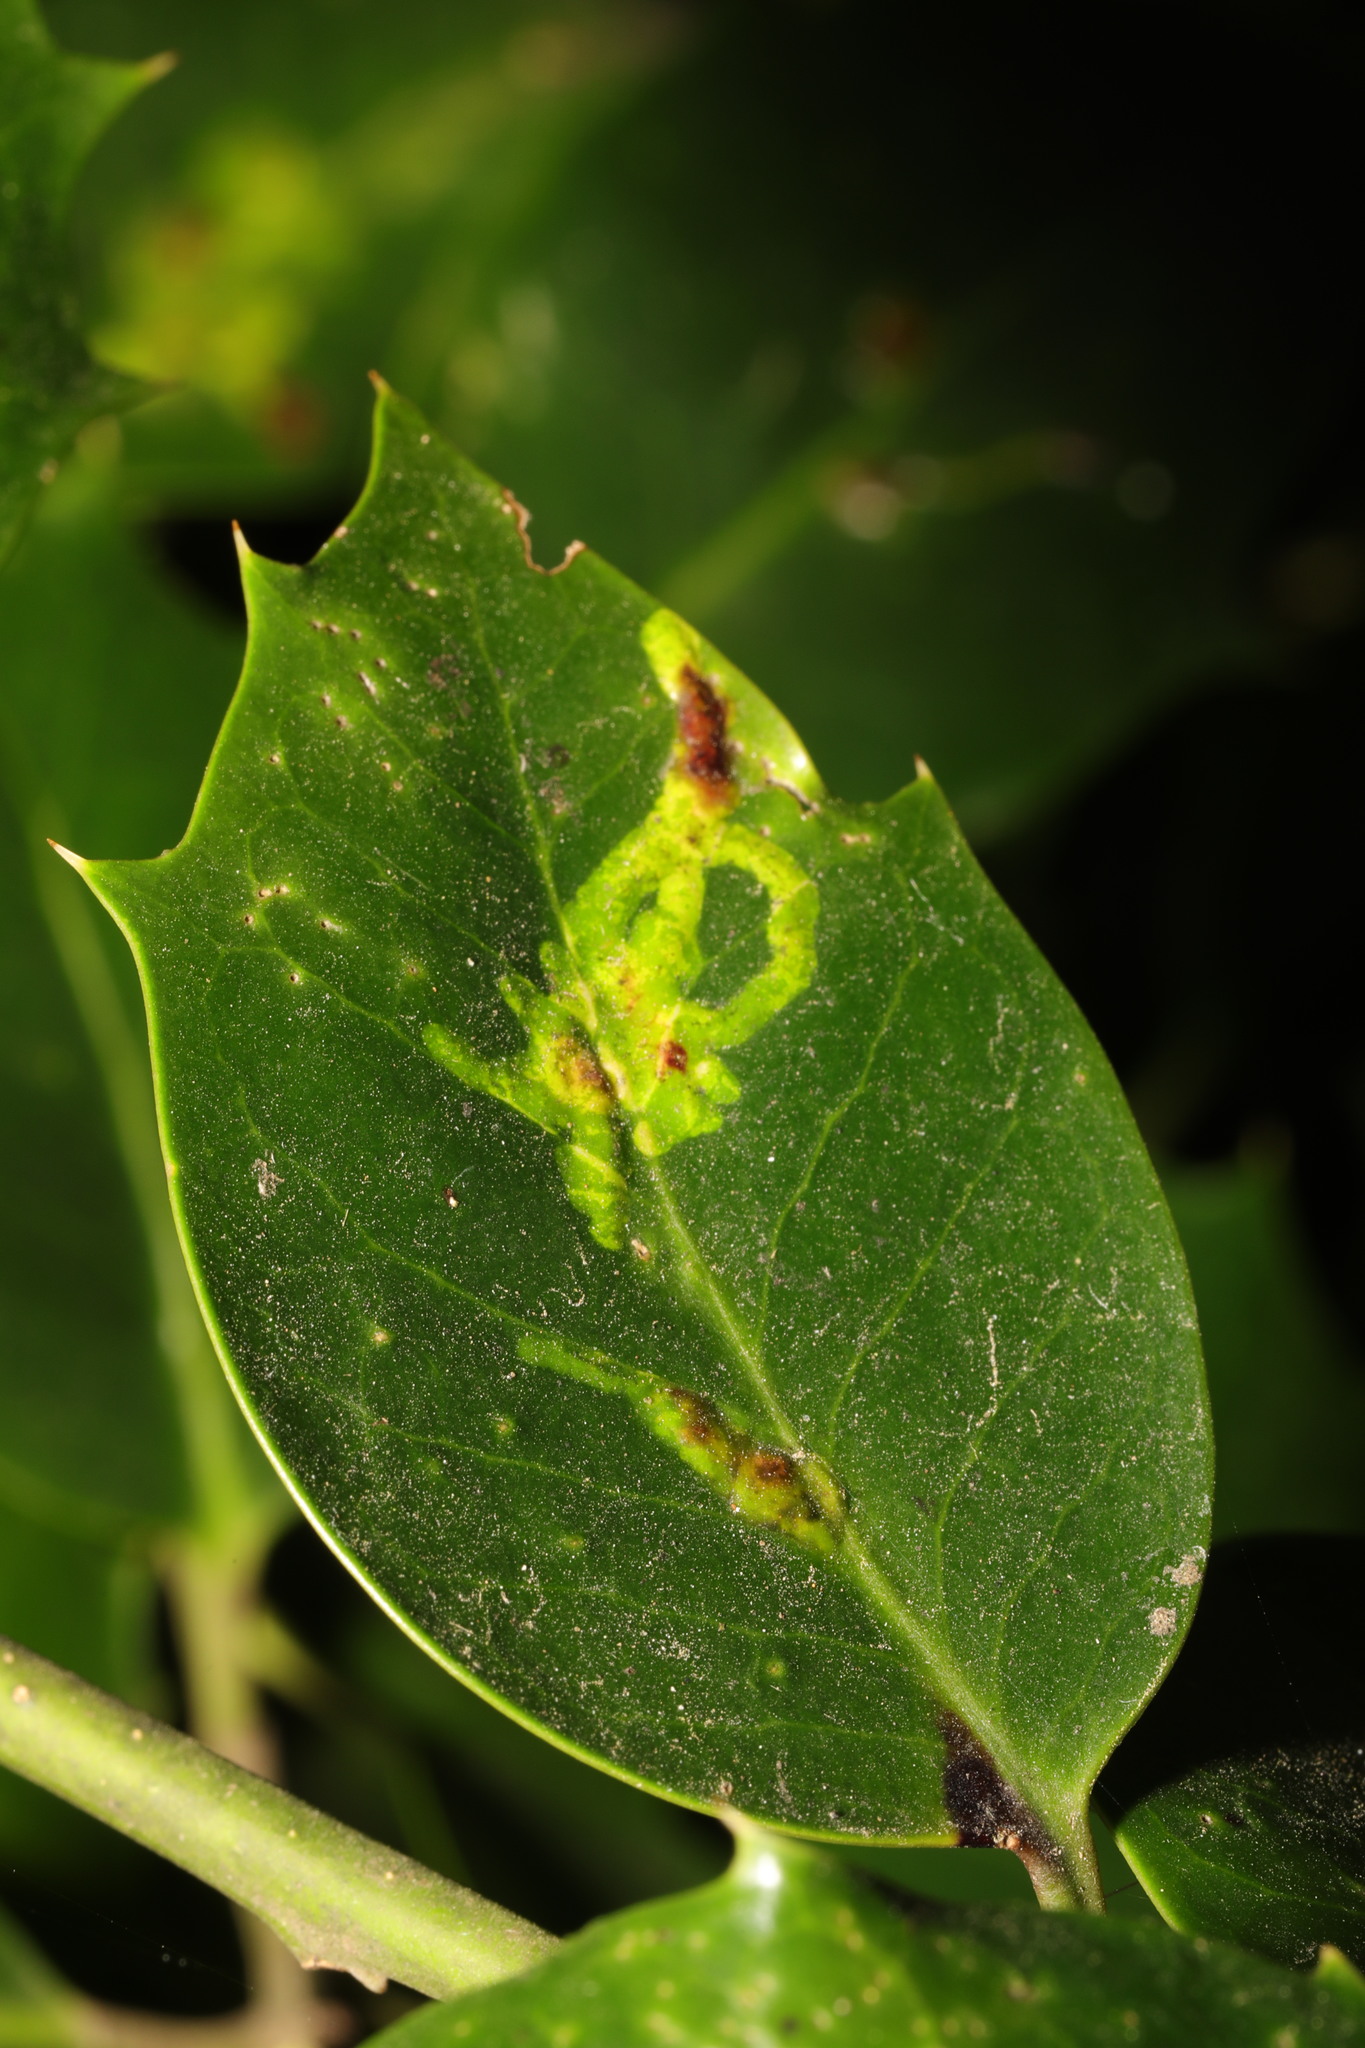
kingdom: Animalia
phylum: Arthropoda
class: Insecta
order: Diptera
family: Agromyzidae
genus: Phytomyza
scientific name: Phytomyza ilicis
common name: Holly leafminer
